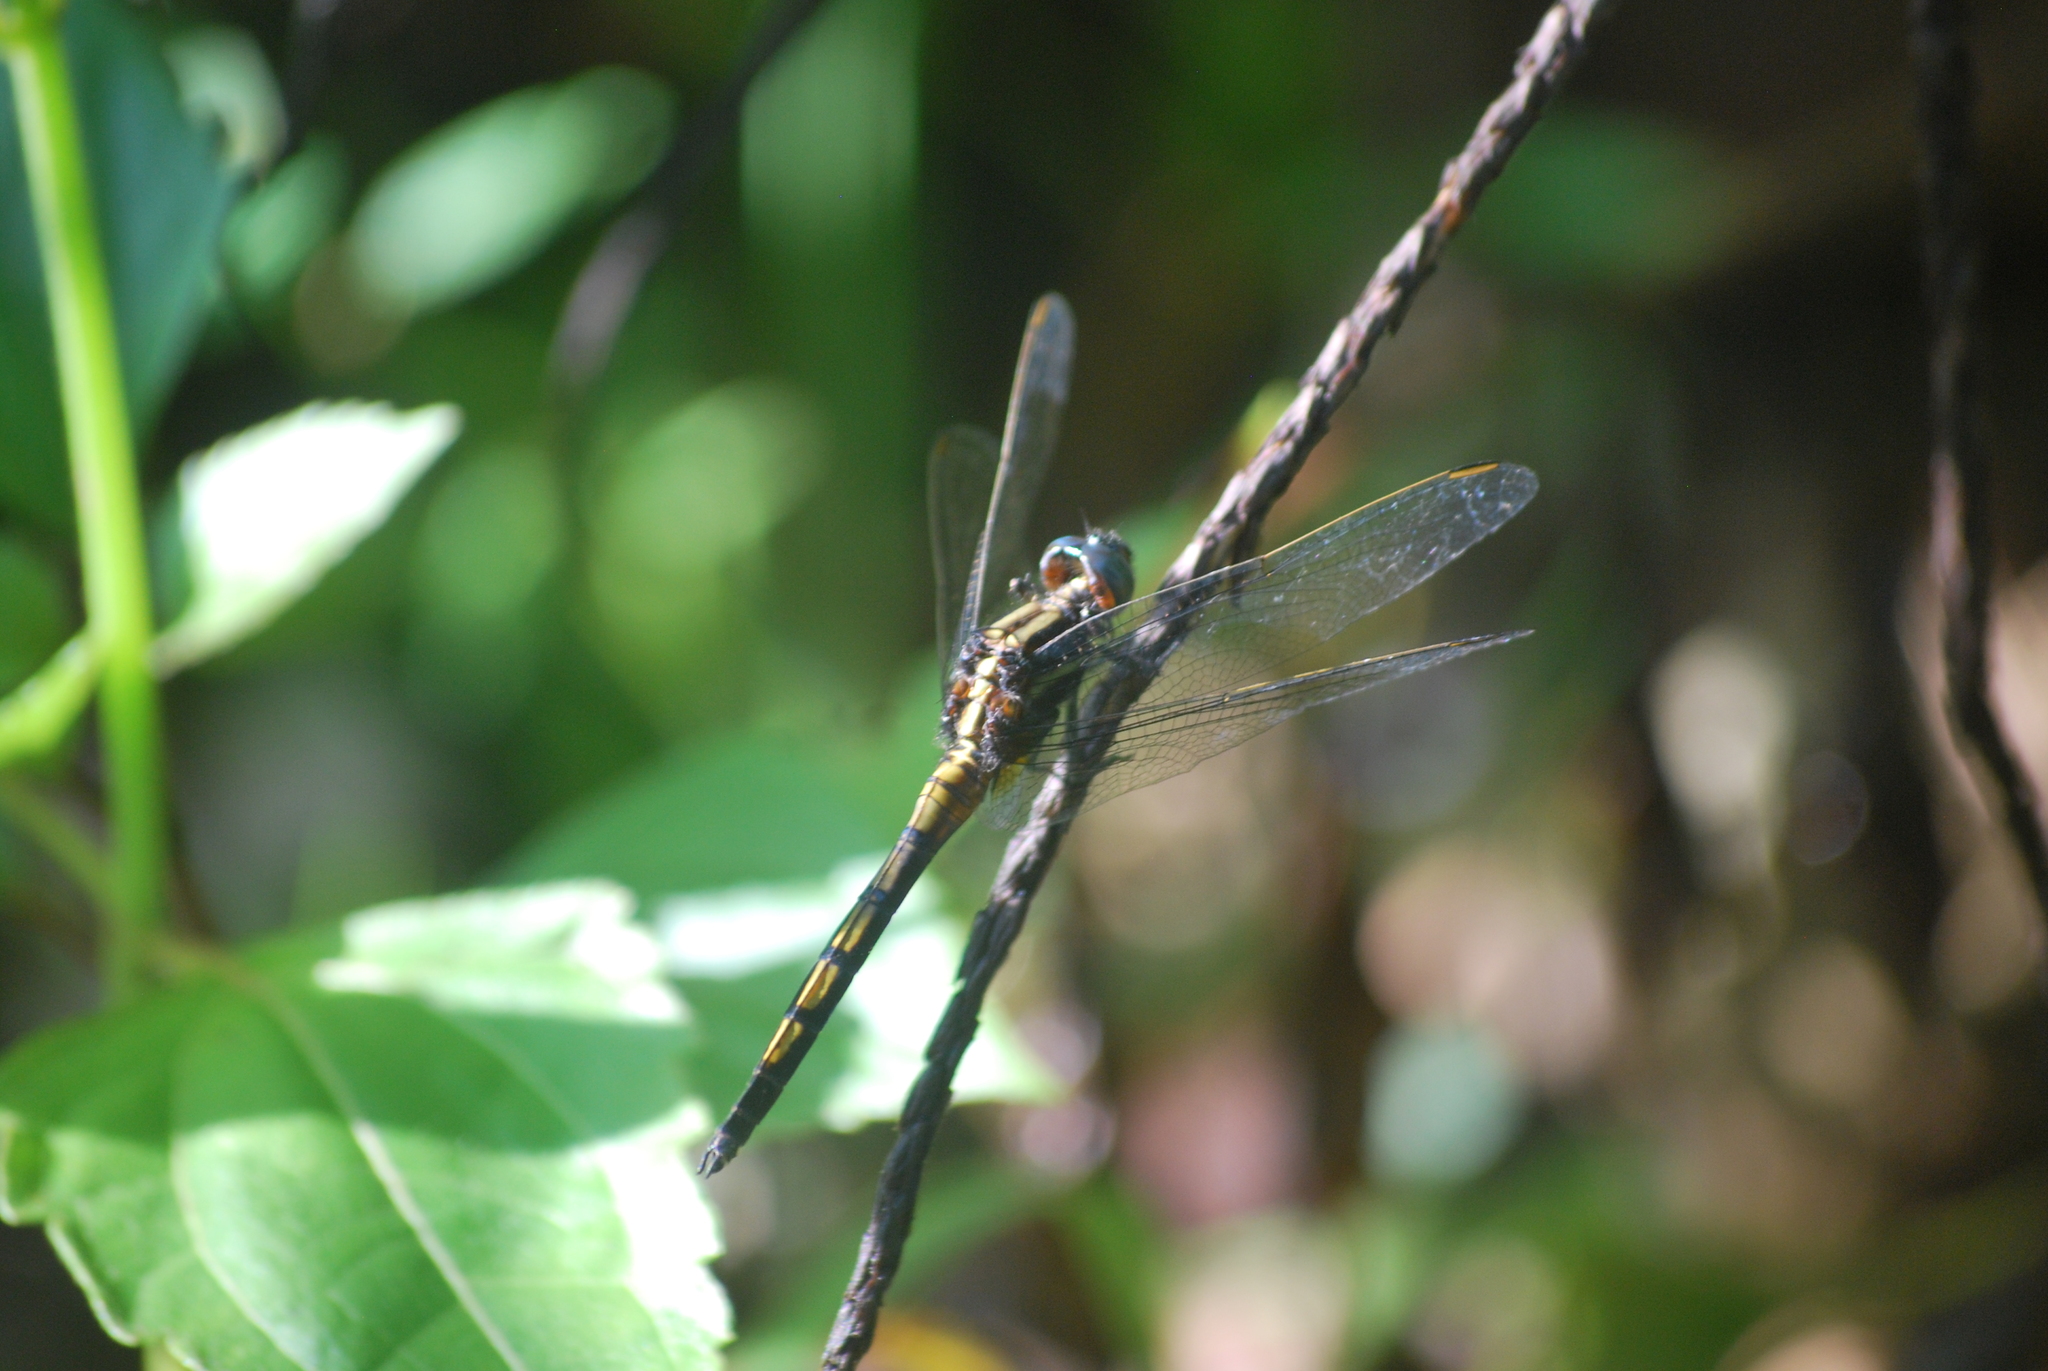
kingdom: Animalia
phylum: Arthropoda
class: Insecta
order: Odonata
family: Libellulidae
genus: Orthetrum
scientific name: Orthetrum glaucum
